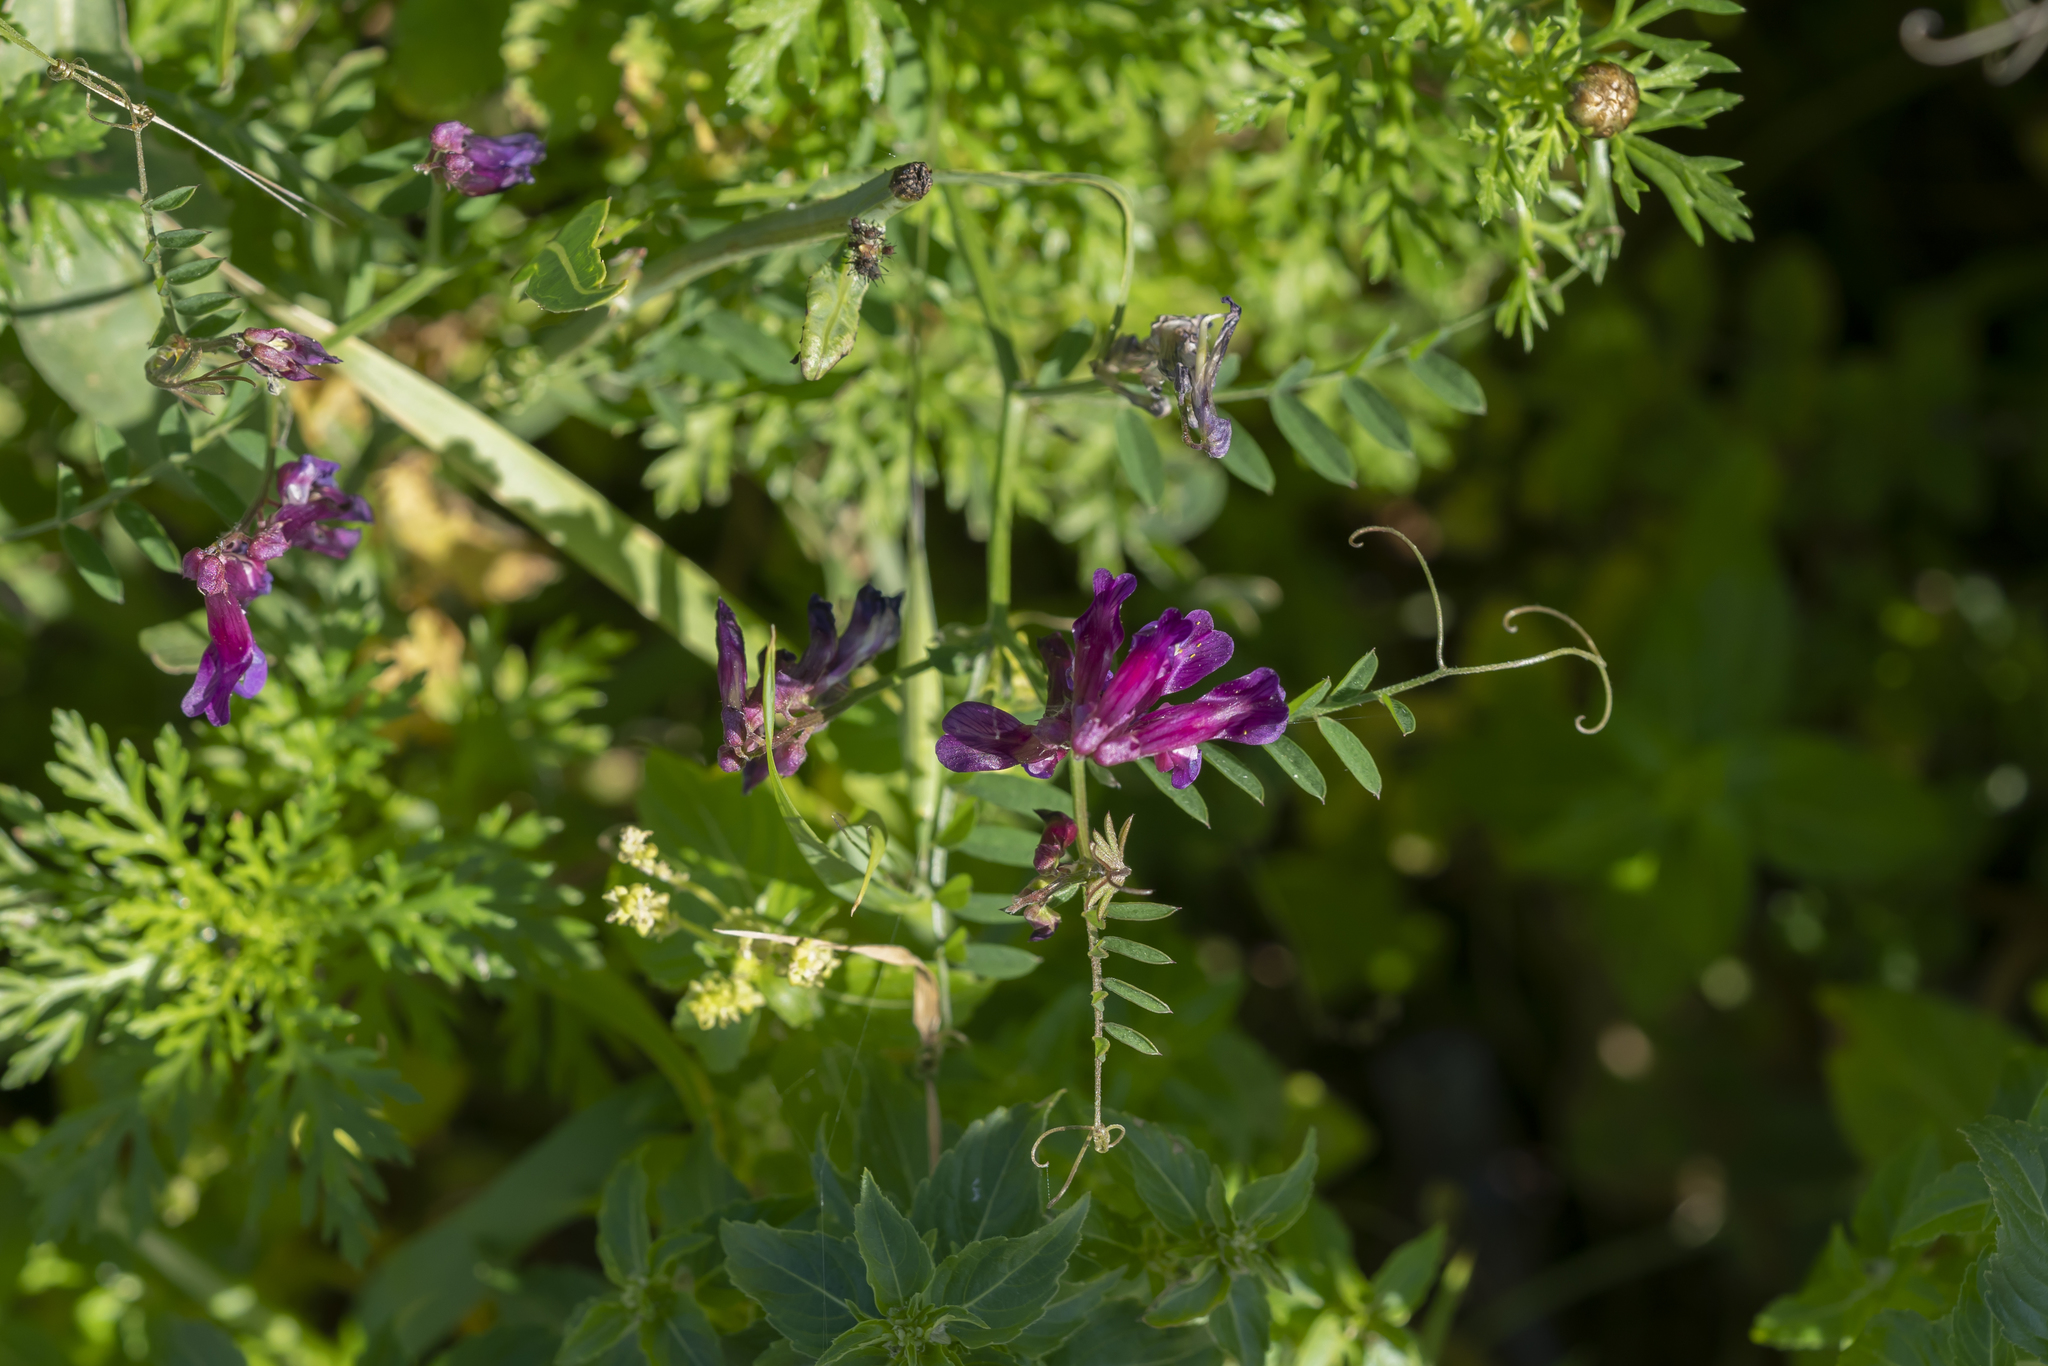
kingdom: Plantae
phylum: Tracheophyta
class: Magnoliopsida
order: Fabales
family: Fabaceae
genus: Vicia
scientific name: Vicia eriocarpa
